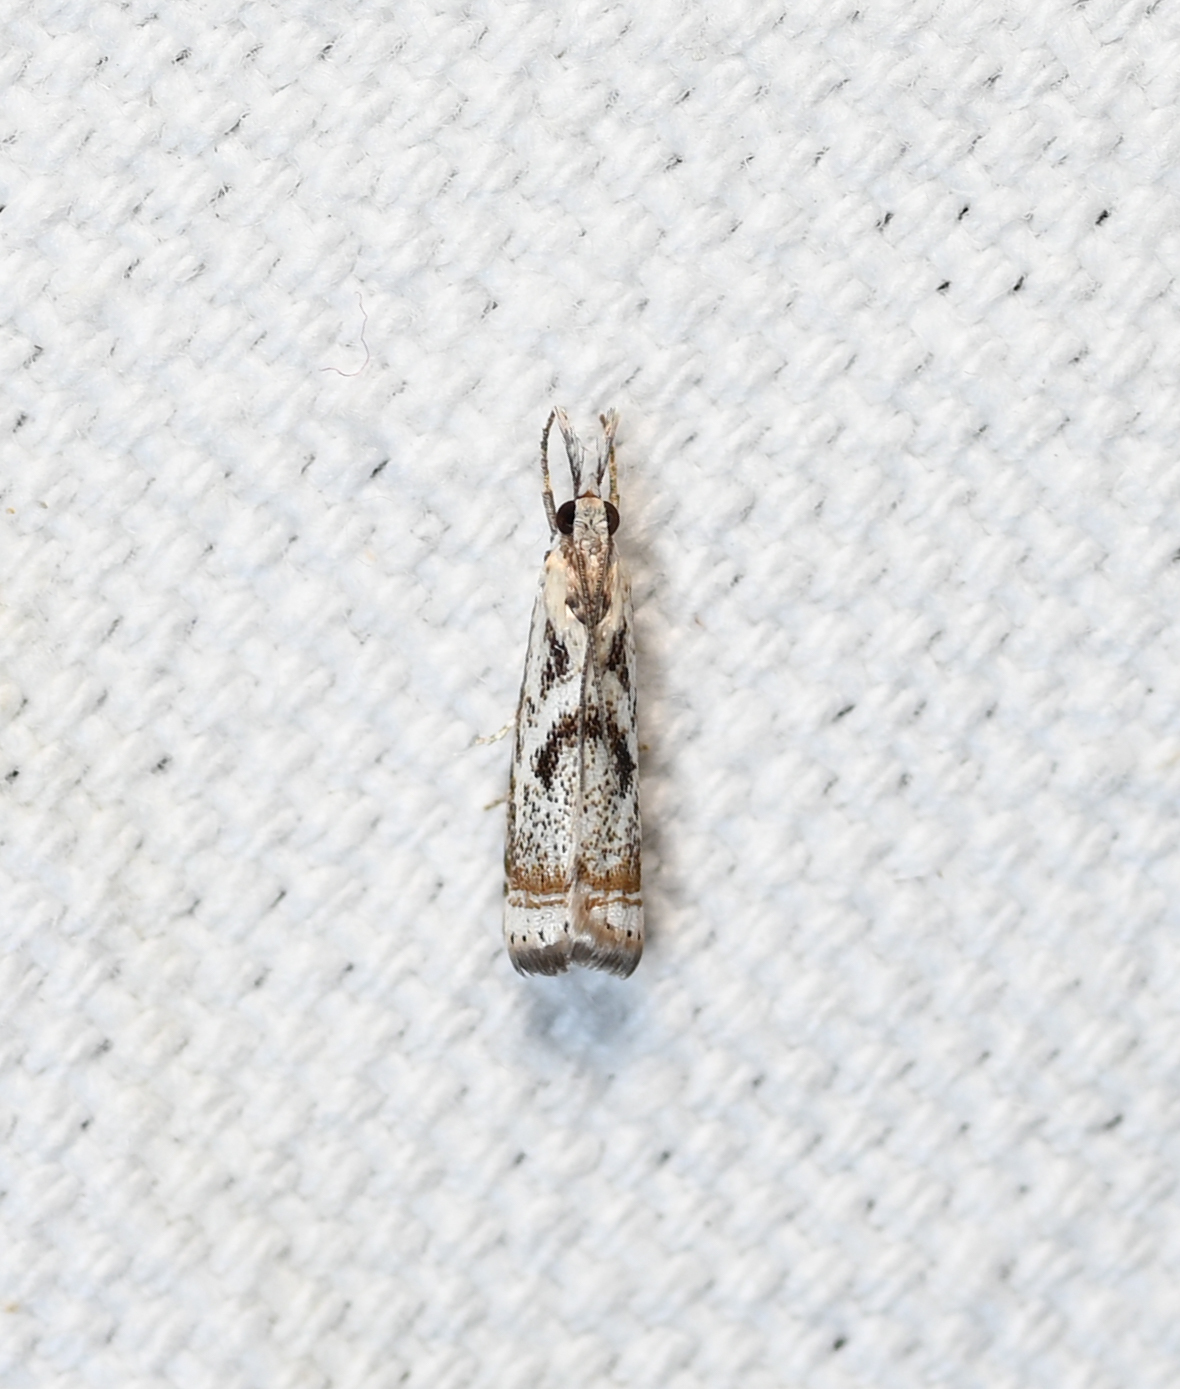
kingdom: Animalia
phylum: Arthropoda
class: Insecta
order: Lepidoptera
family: Crambidae
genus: Microcrambus
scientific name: Microcrambus elegans
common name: Elegant grass-veneer
